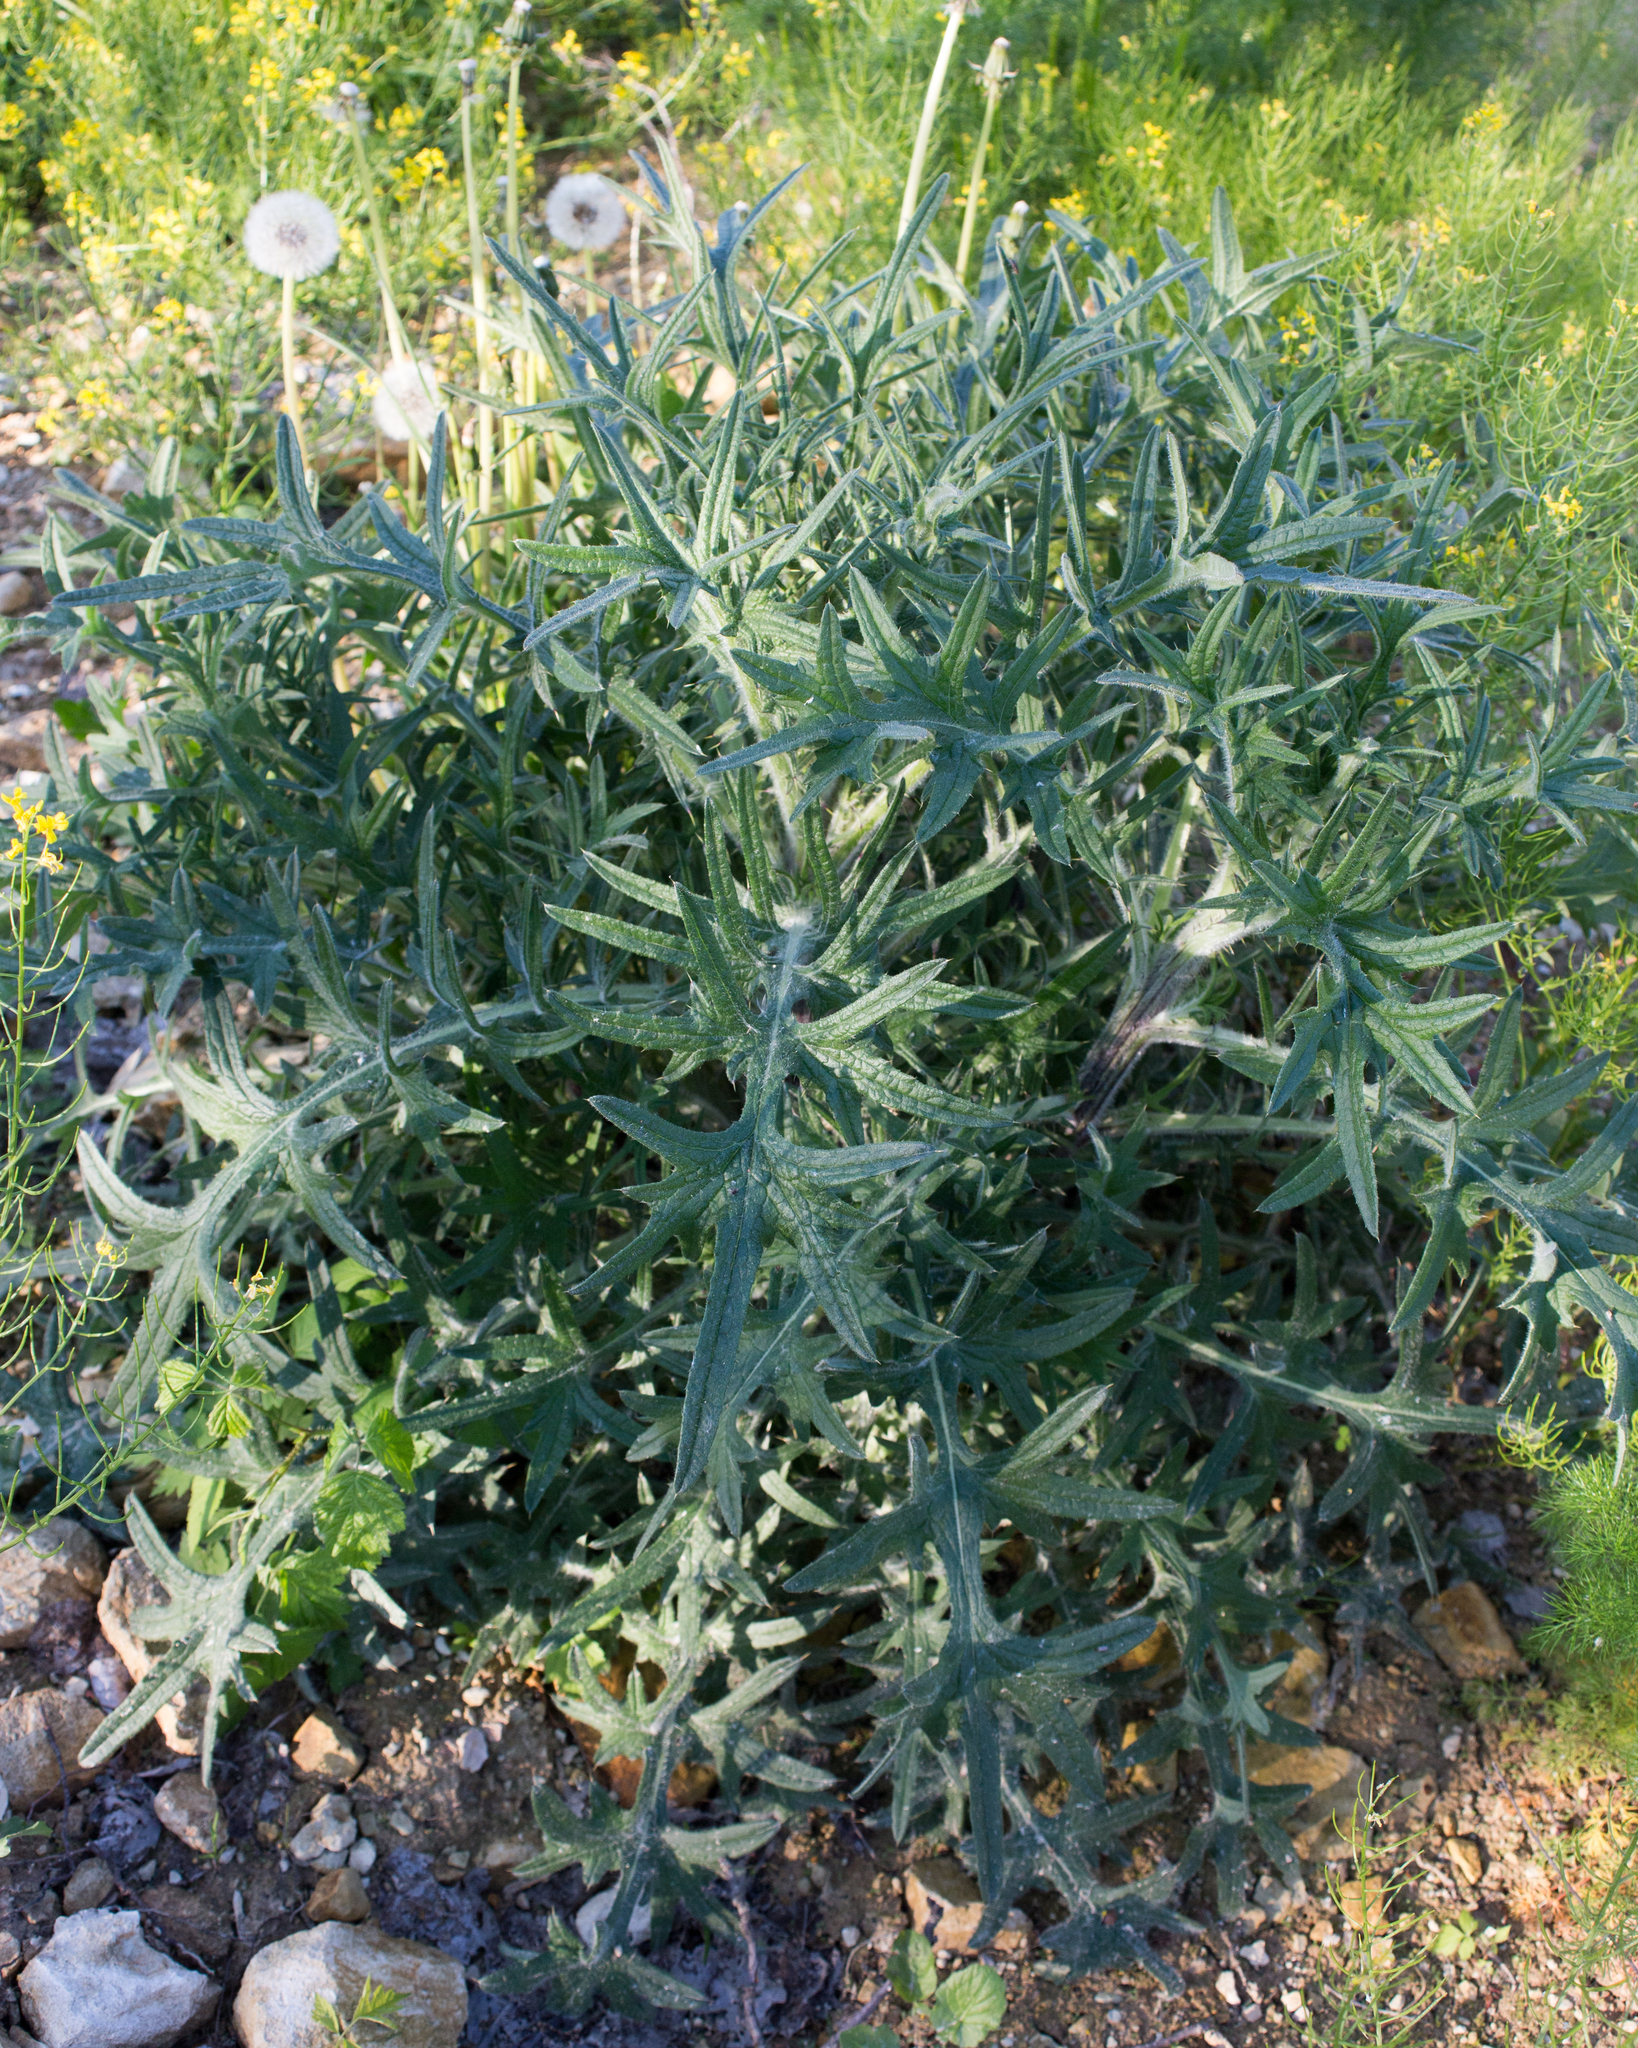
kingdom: Plantae
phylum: Tracheophyta
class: Magnoliopsida
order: Asterales
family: Asteraceae
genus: Cirsium
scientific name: Cirsium vulgare
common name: Bull thistle
